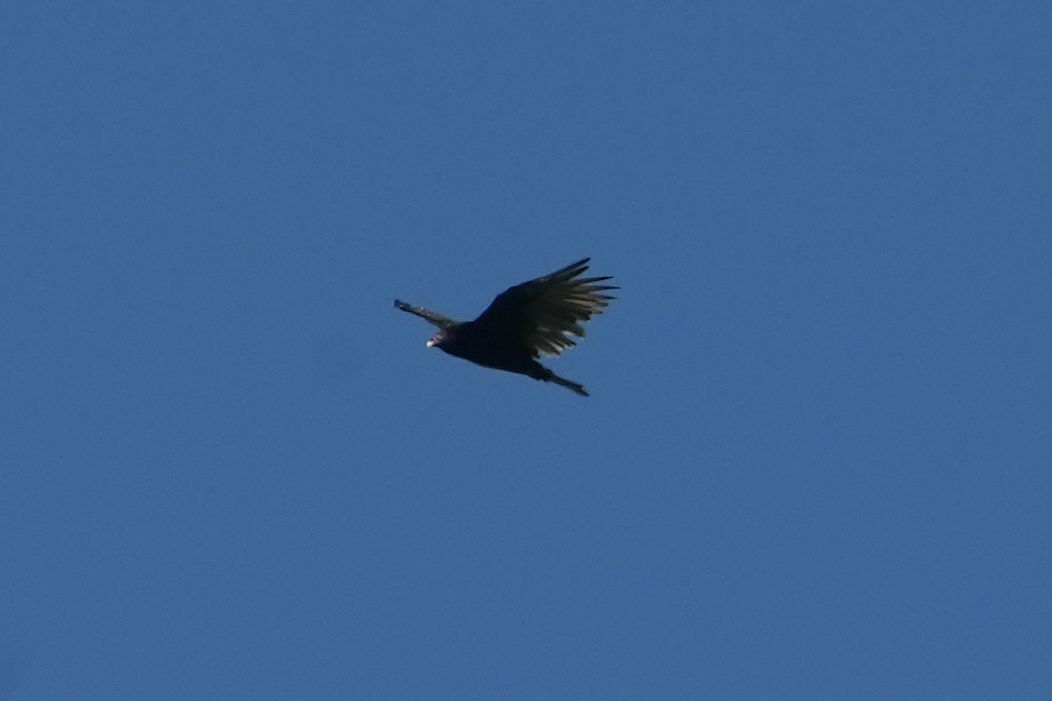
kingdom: Animalia
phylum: Chordata
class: Aves
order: Accipitriformes
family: Cathartidae
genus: Cathartes
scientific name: Cathartes aura
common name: Turkey vulture
